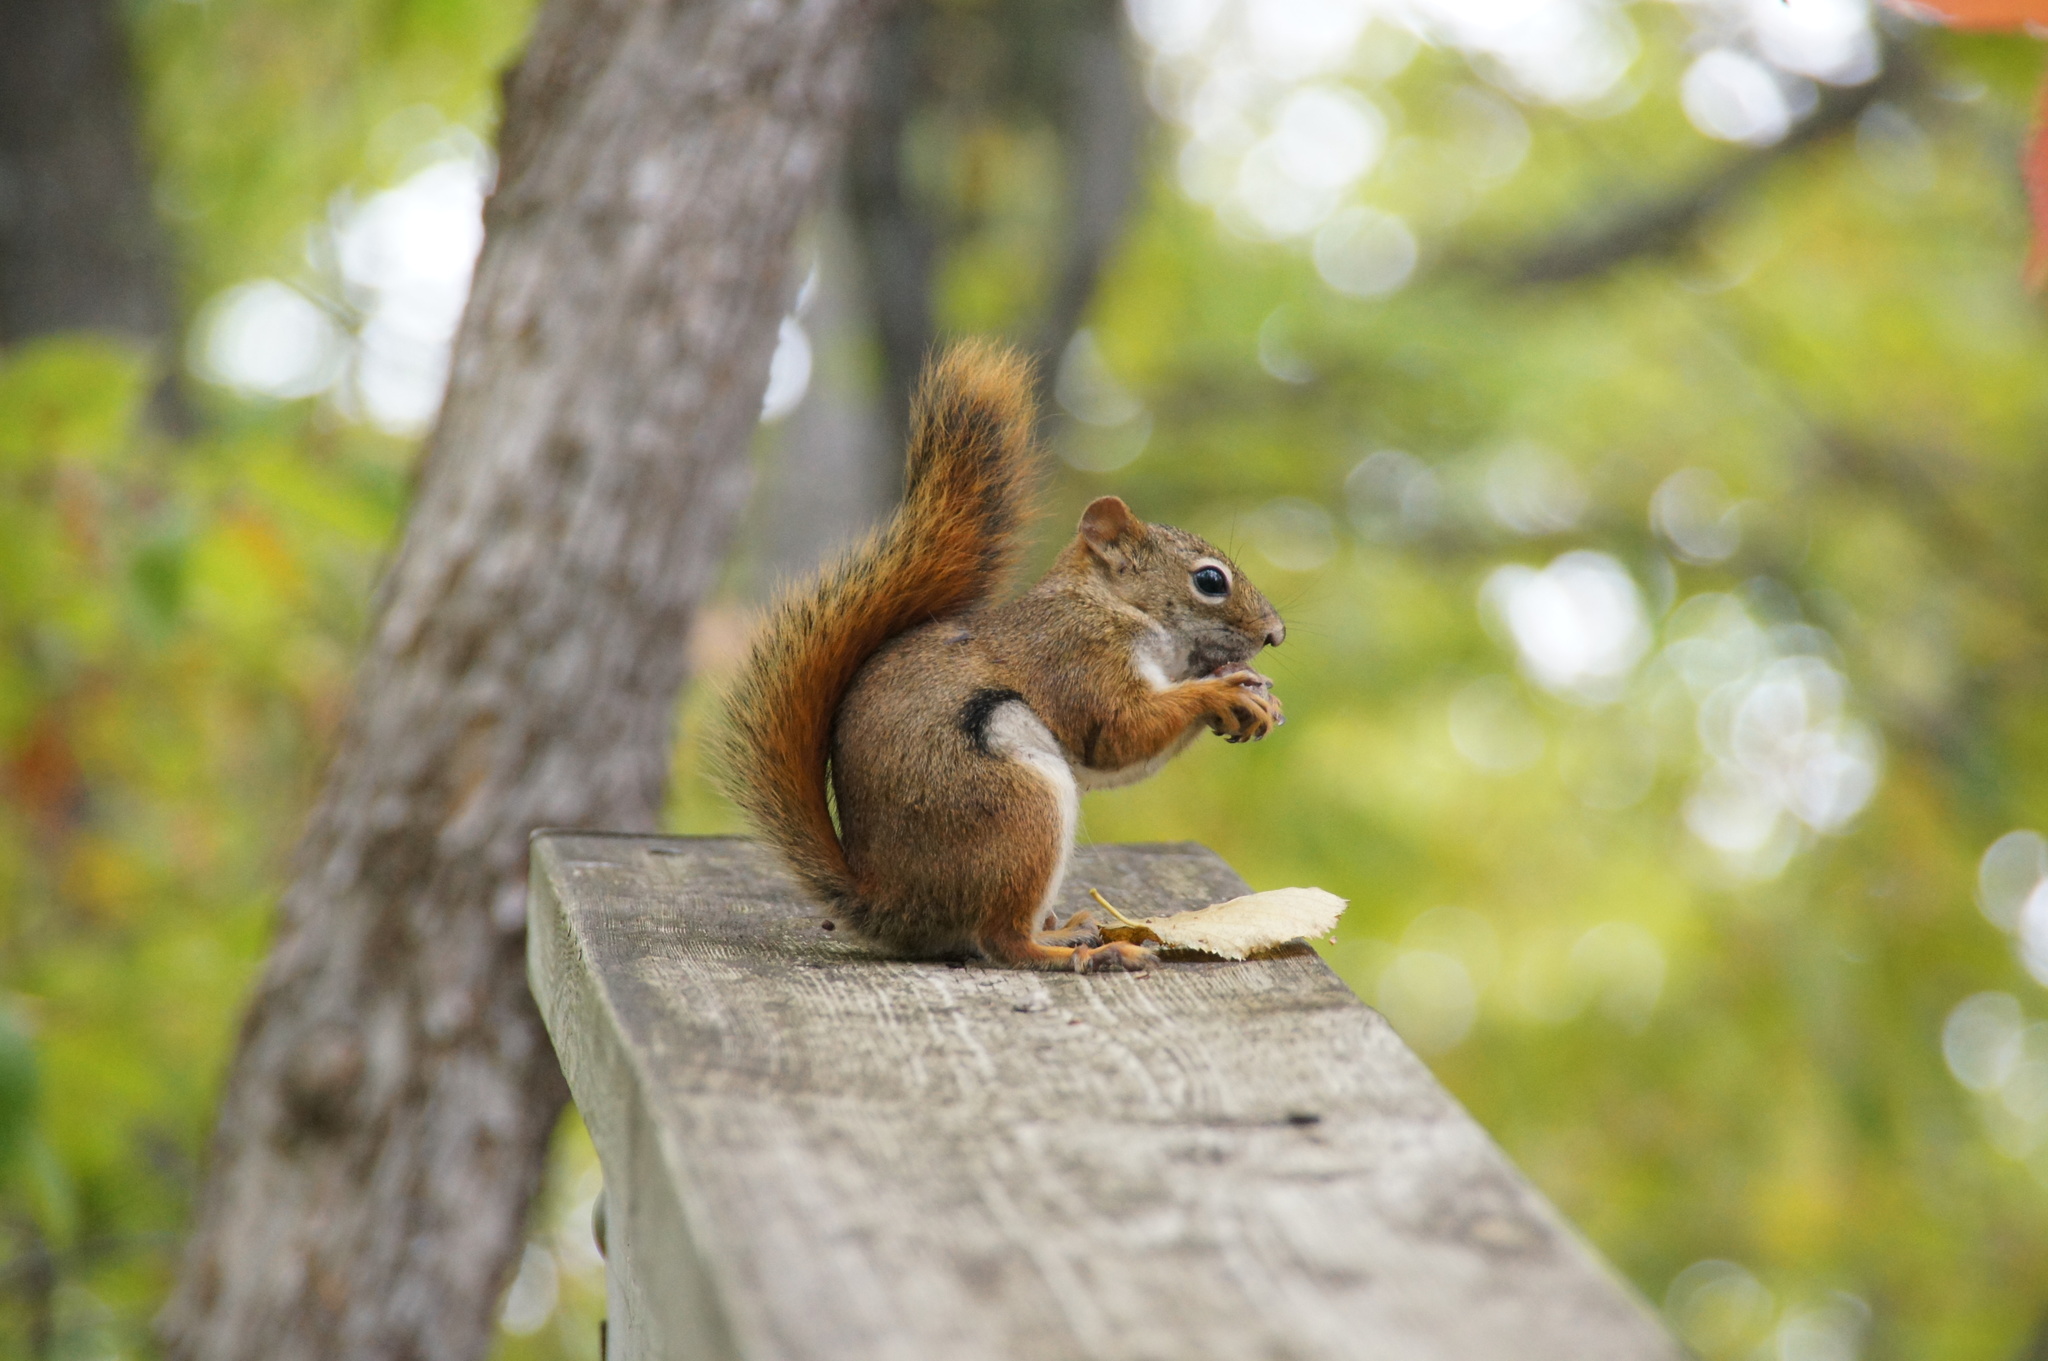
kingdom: Animalia
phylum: Chordata
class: Mammalia
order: Rodentia
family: Sciuridae
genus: Tamiasciurus
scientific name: Tamiasciurus hudsonicus
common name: Red squirrel
